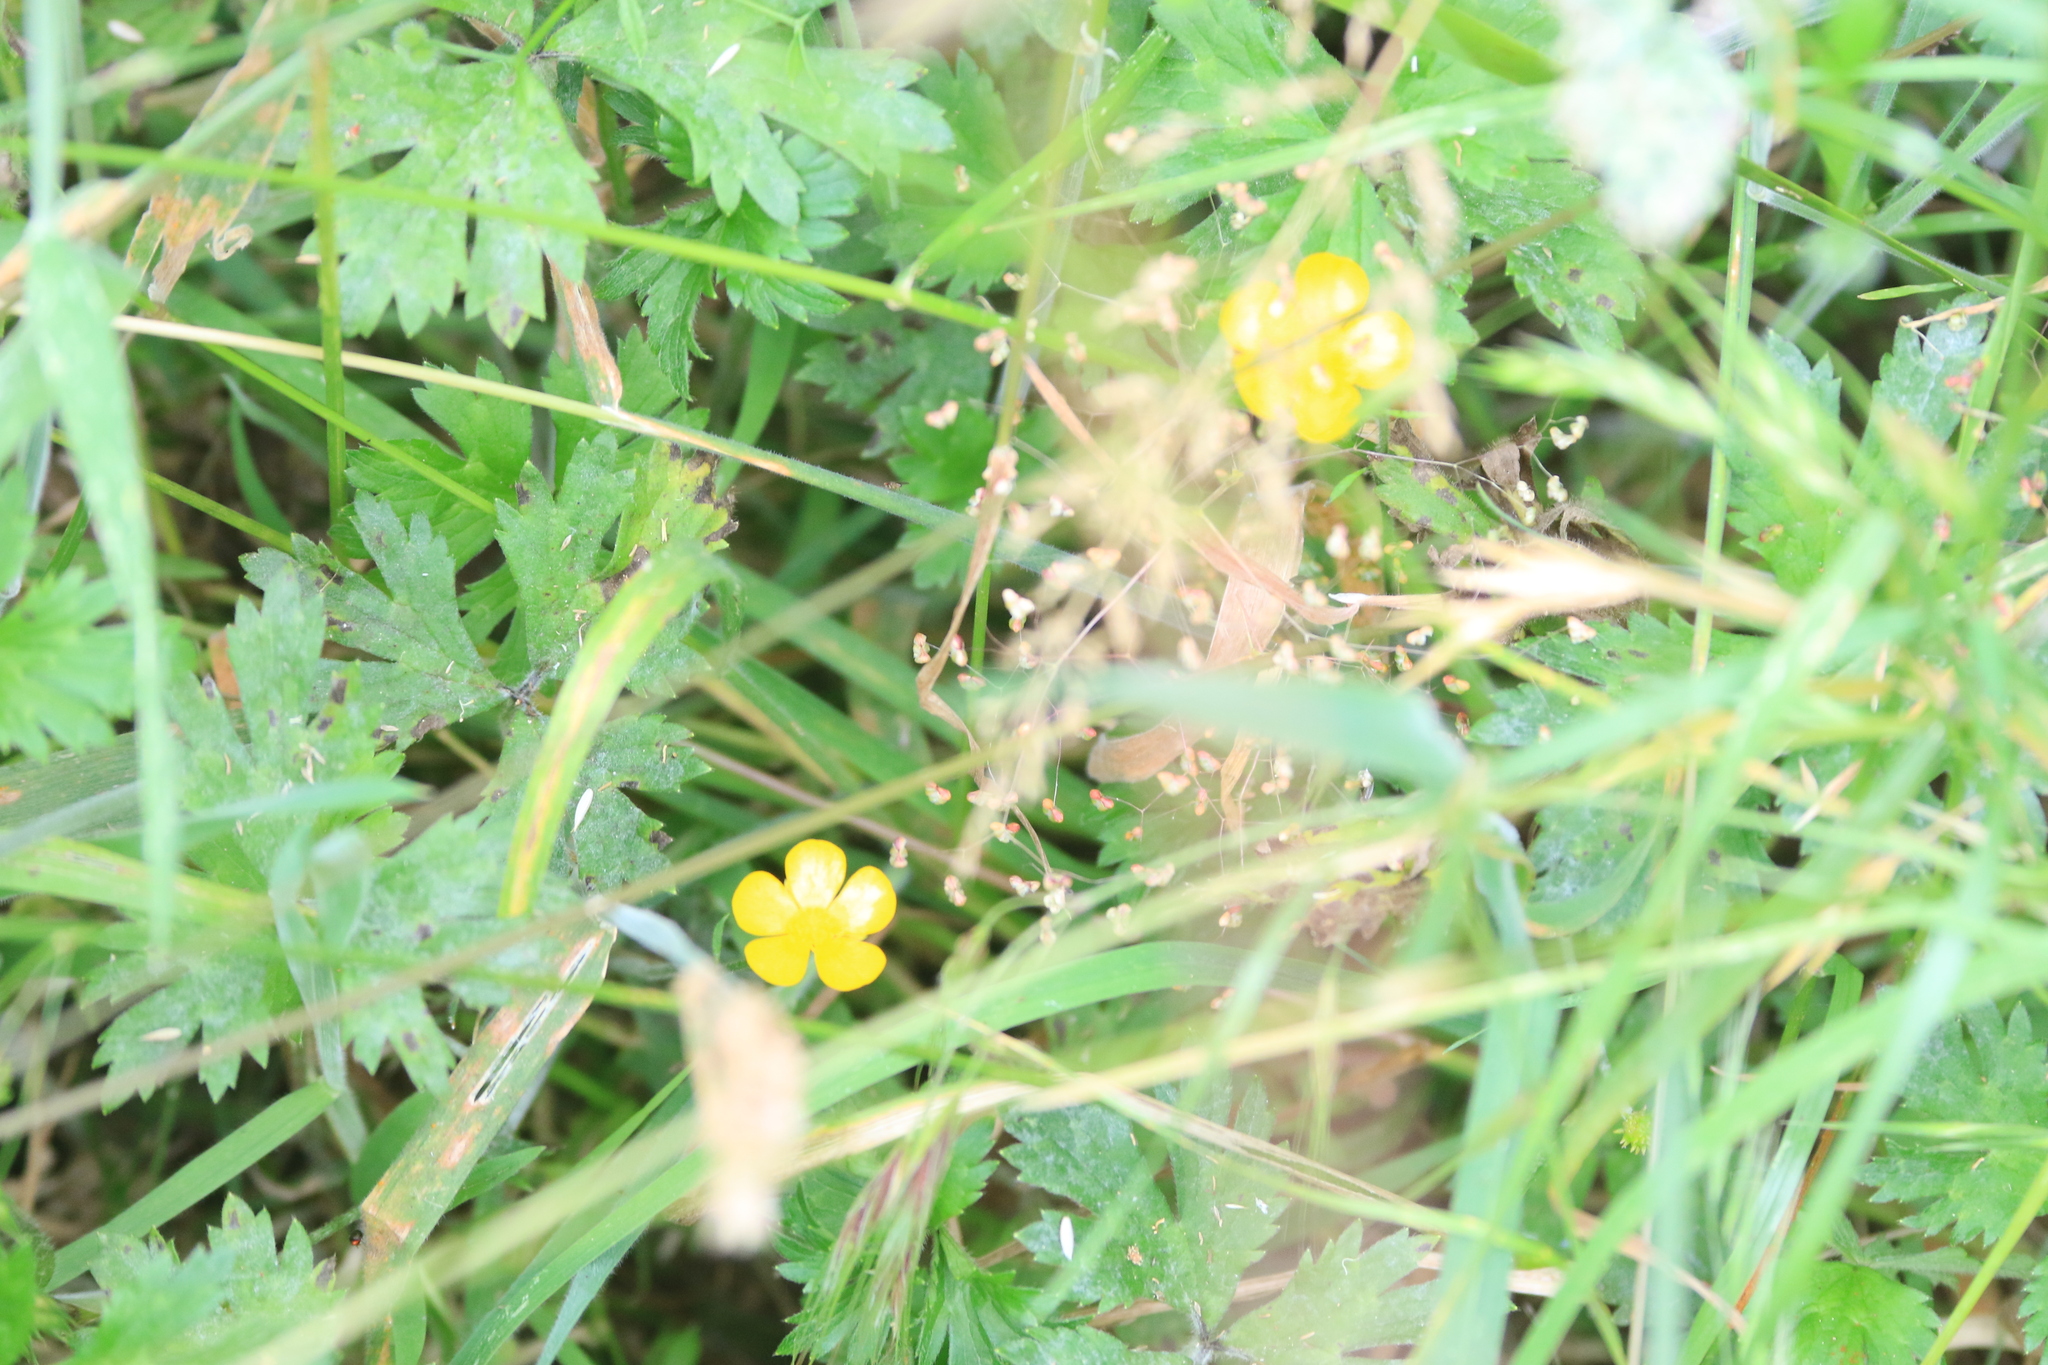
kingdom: Plantae
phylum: Tracheophyta
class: Magnoliopsida
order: Ranunculales
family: Ranunculaceae
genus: Ranunculus
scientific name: Ranunculus repens
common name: Creeping buttercup
